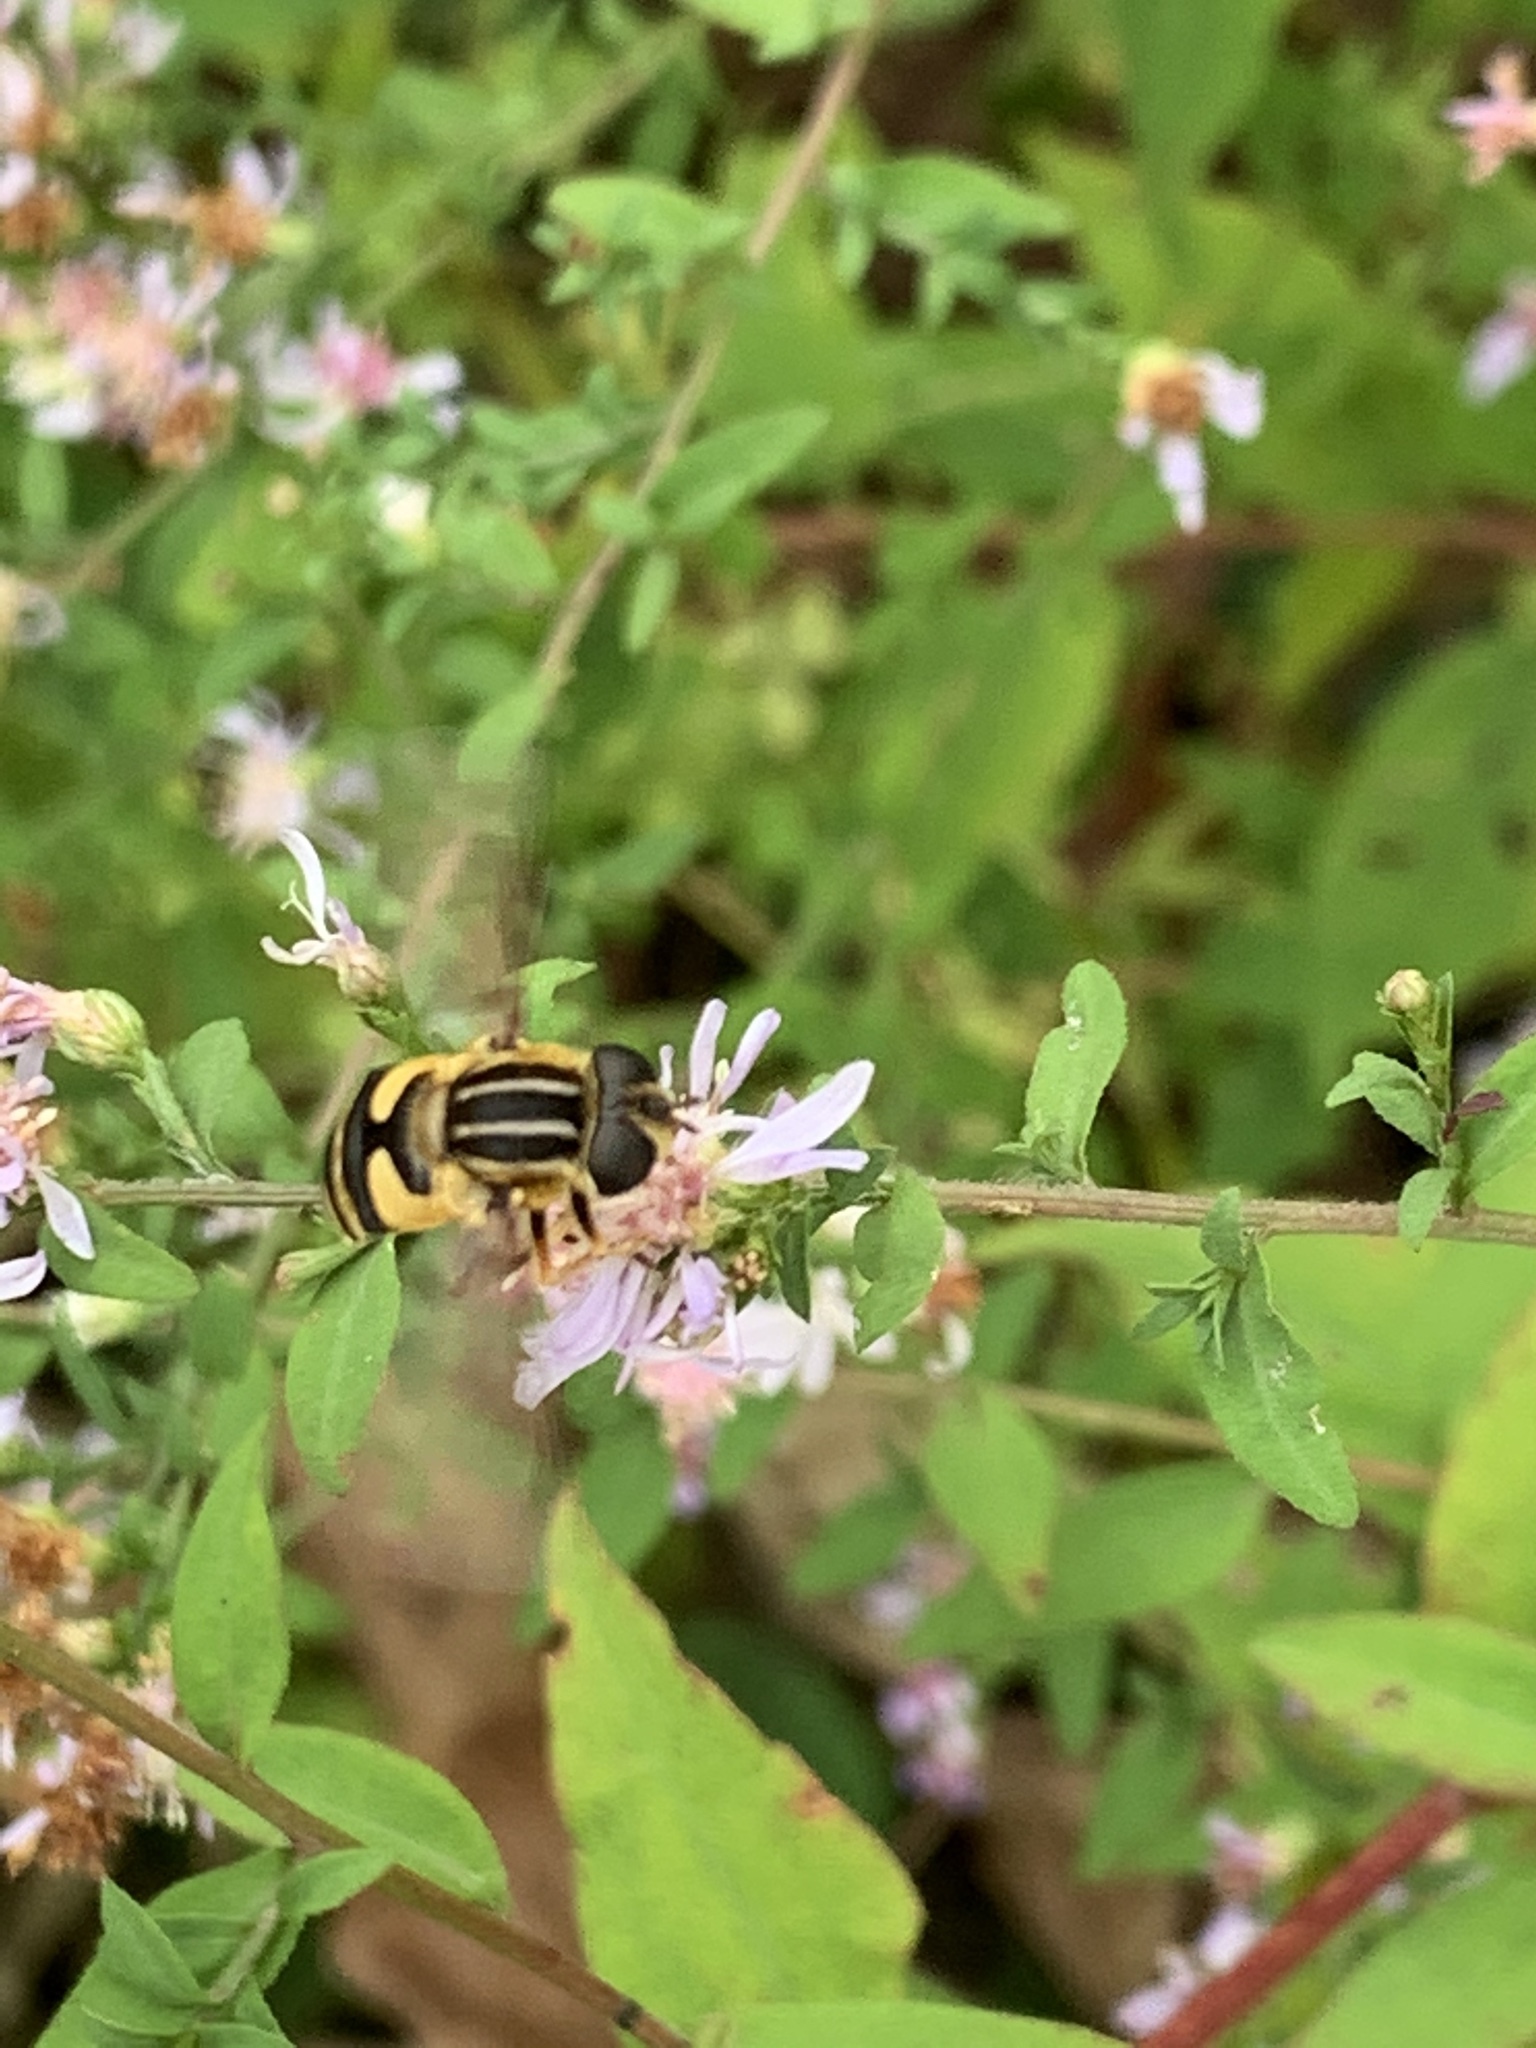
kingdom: Animalia
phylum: Arthropoda
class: Insecta
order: Diptera
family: Syrphidae
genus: Helophilus
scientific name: Helophilus fasciatus
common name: Narrow-headed marsh fly
